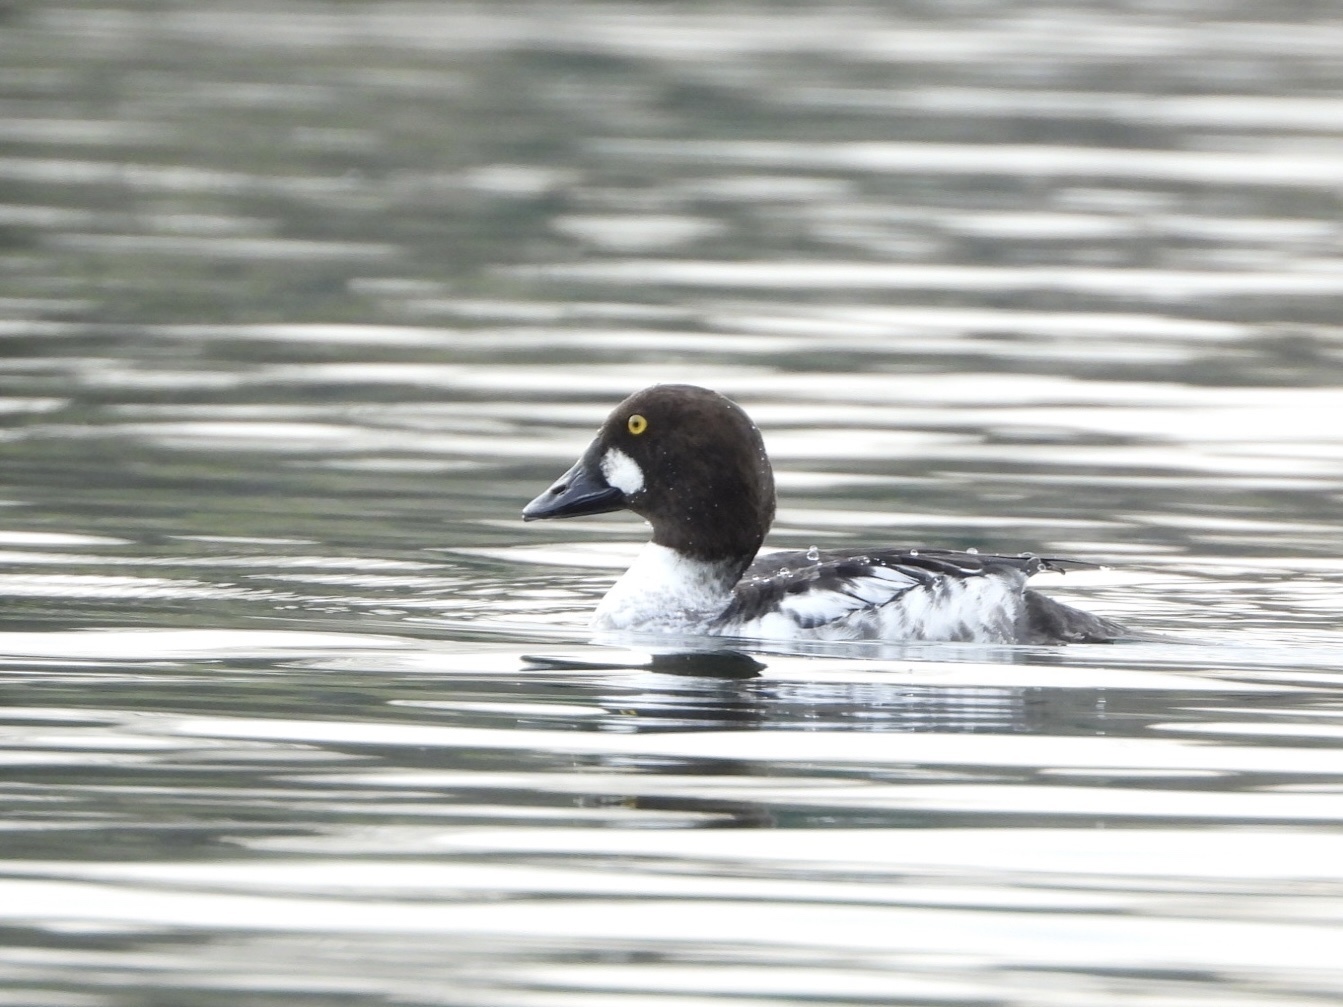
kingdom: Animalia
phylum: Chordata
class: Aves
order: Anseriformes
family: Anatidae
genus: Bucephala
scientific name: Bucephala clangula
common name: Common goldeneye
